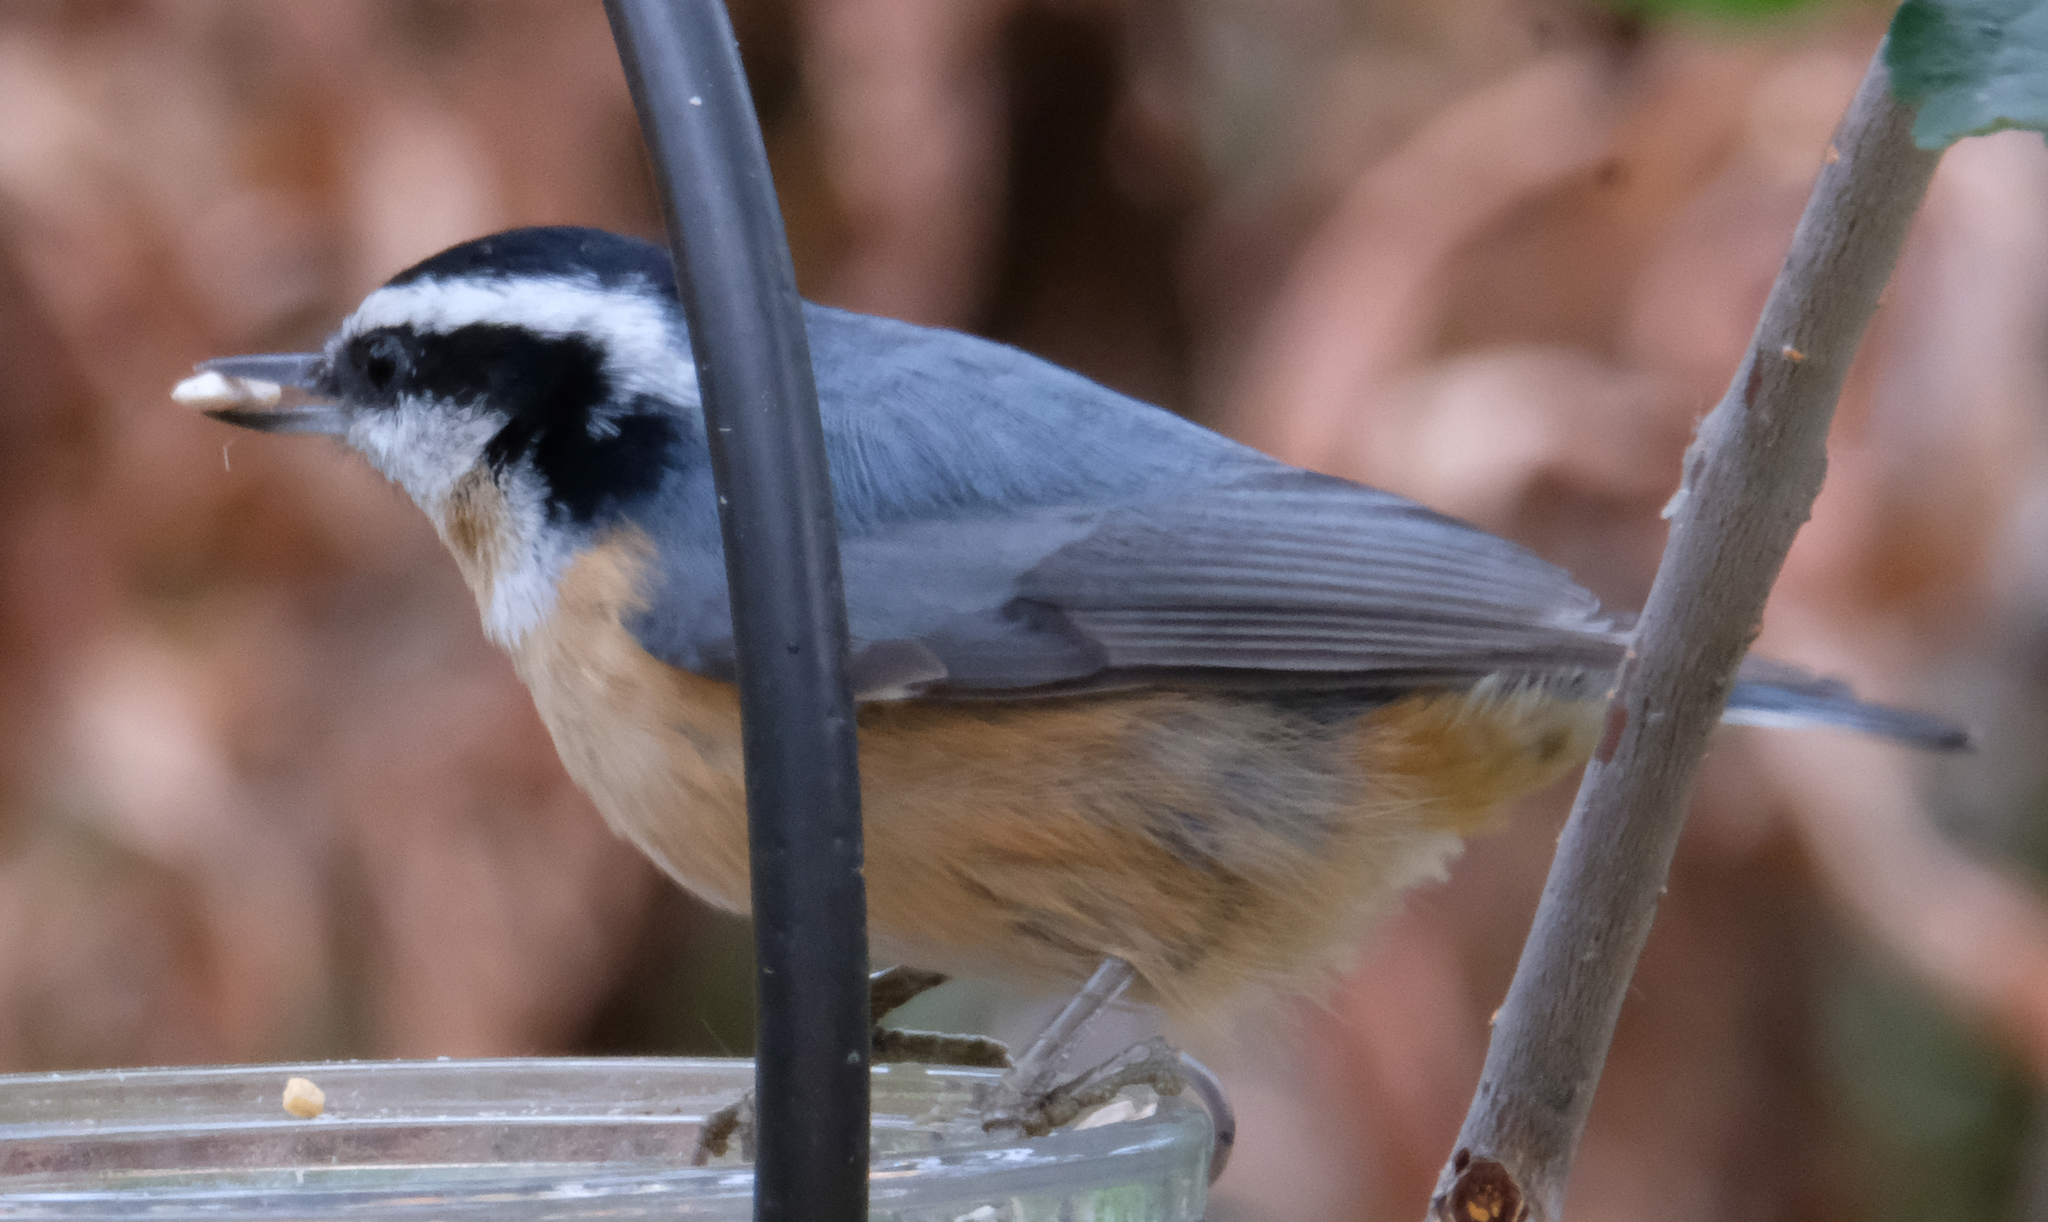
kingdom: Animalia
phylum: Chordata
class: Aves
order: Passeriformes
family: Sittidae
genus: Sitta
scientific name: Sitta canadensis
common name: Red-breasted nuthatch
